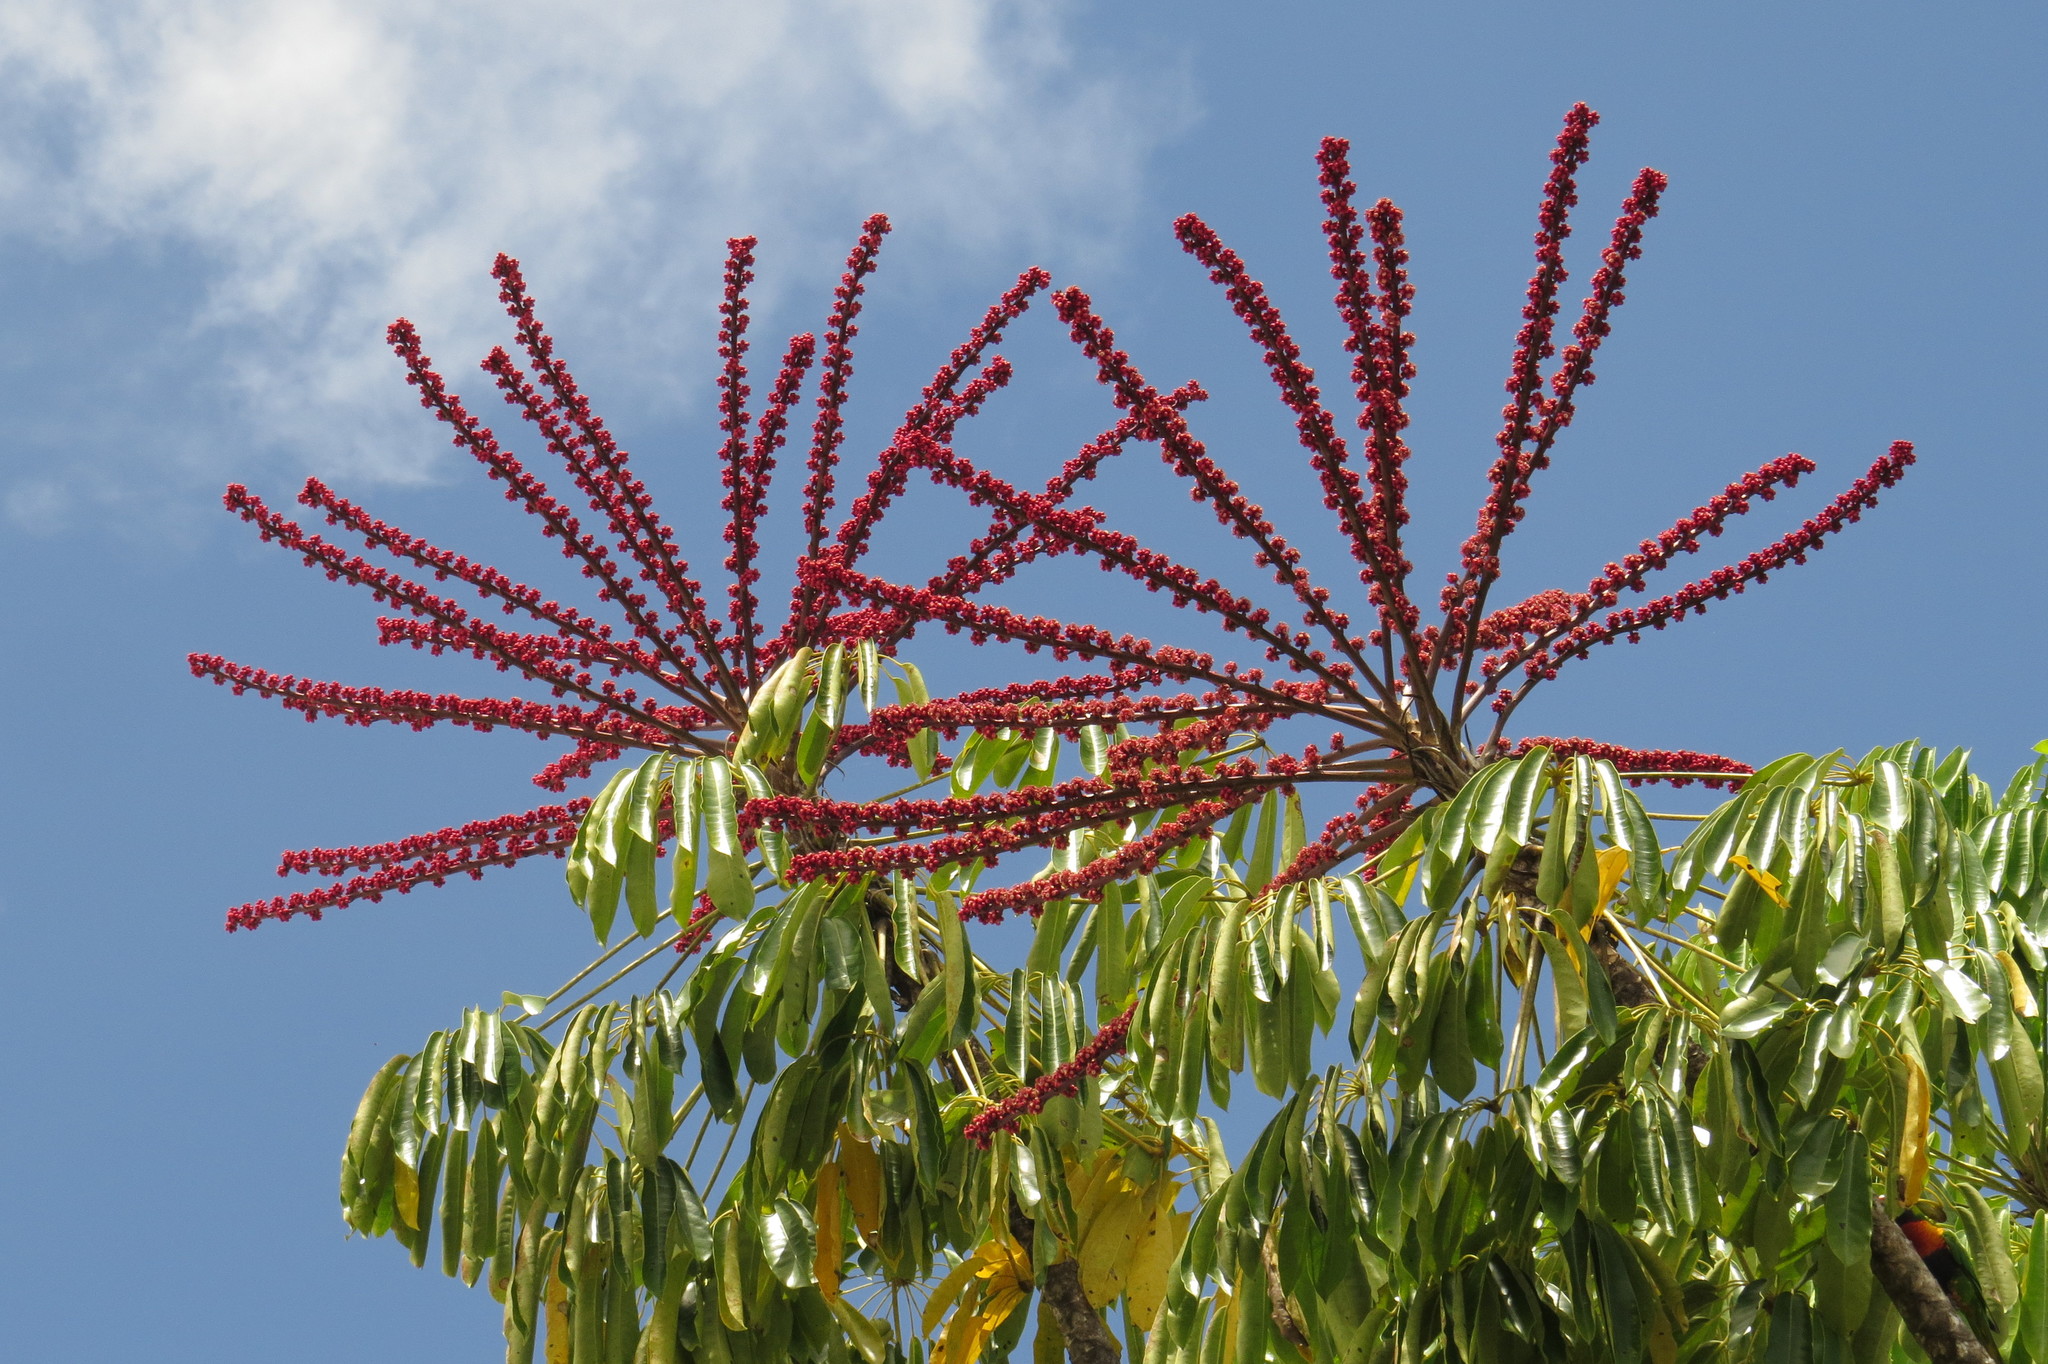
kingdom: Plantae
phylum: Tracheophyta
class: Magnoliopsida
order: Apiales
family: Araliaceae
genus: Heptapleurum
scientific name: Heptapleurum actinophyllum
